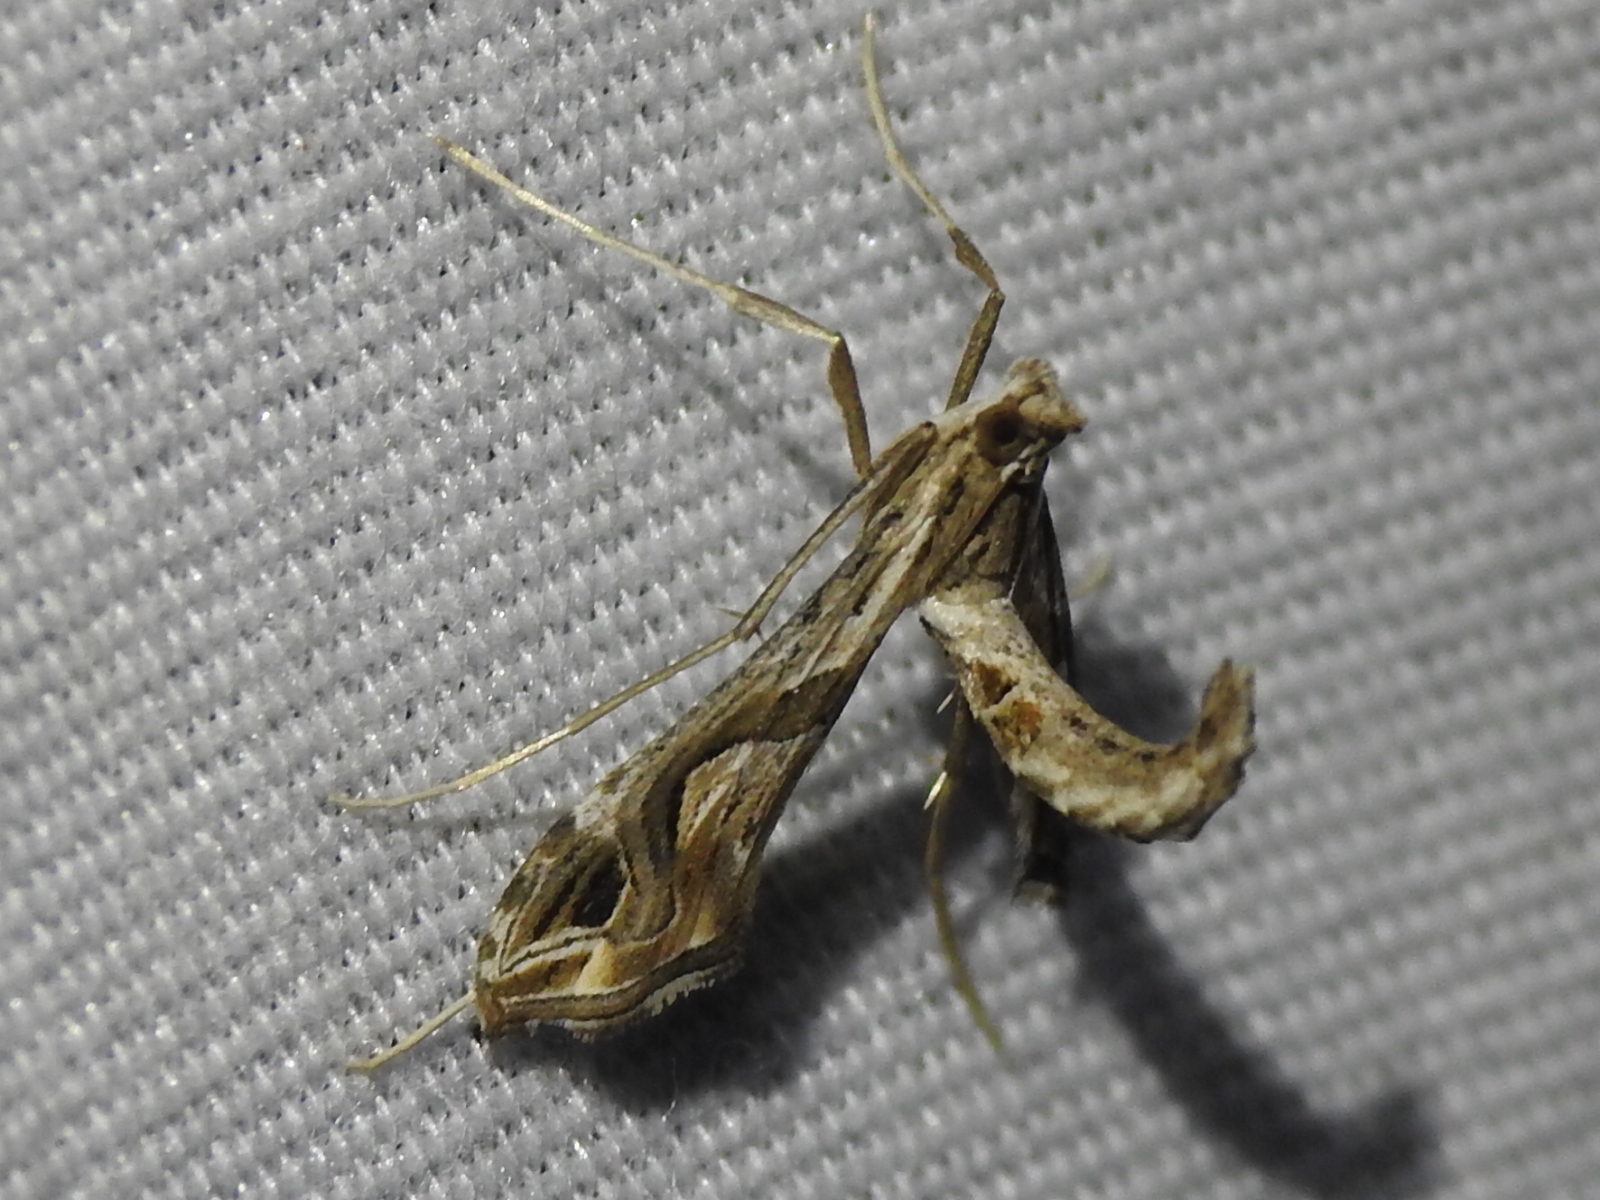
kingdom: Animalia
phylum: Arthropoda
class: Insecta
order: Lepidoptera
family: Crambidae
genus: Lineodes
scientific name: Lineodes integra
